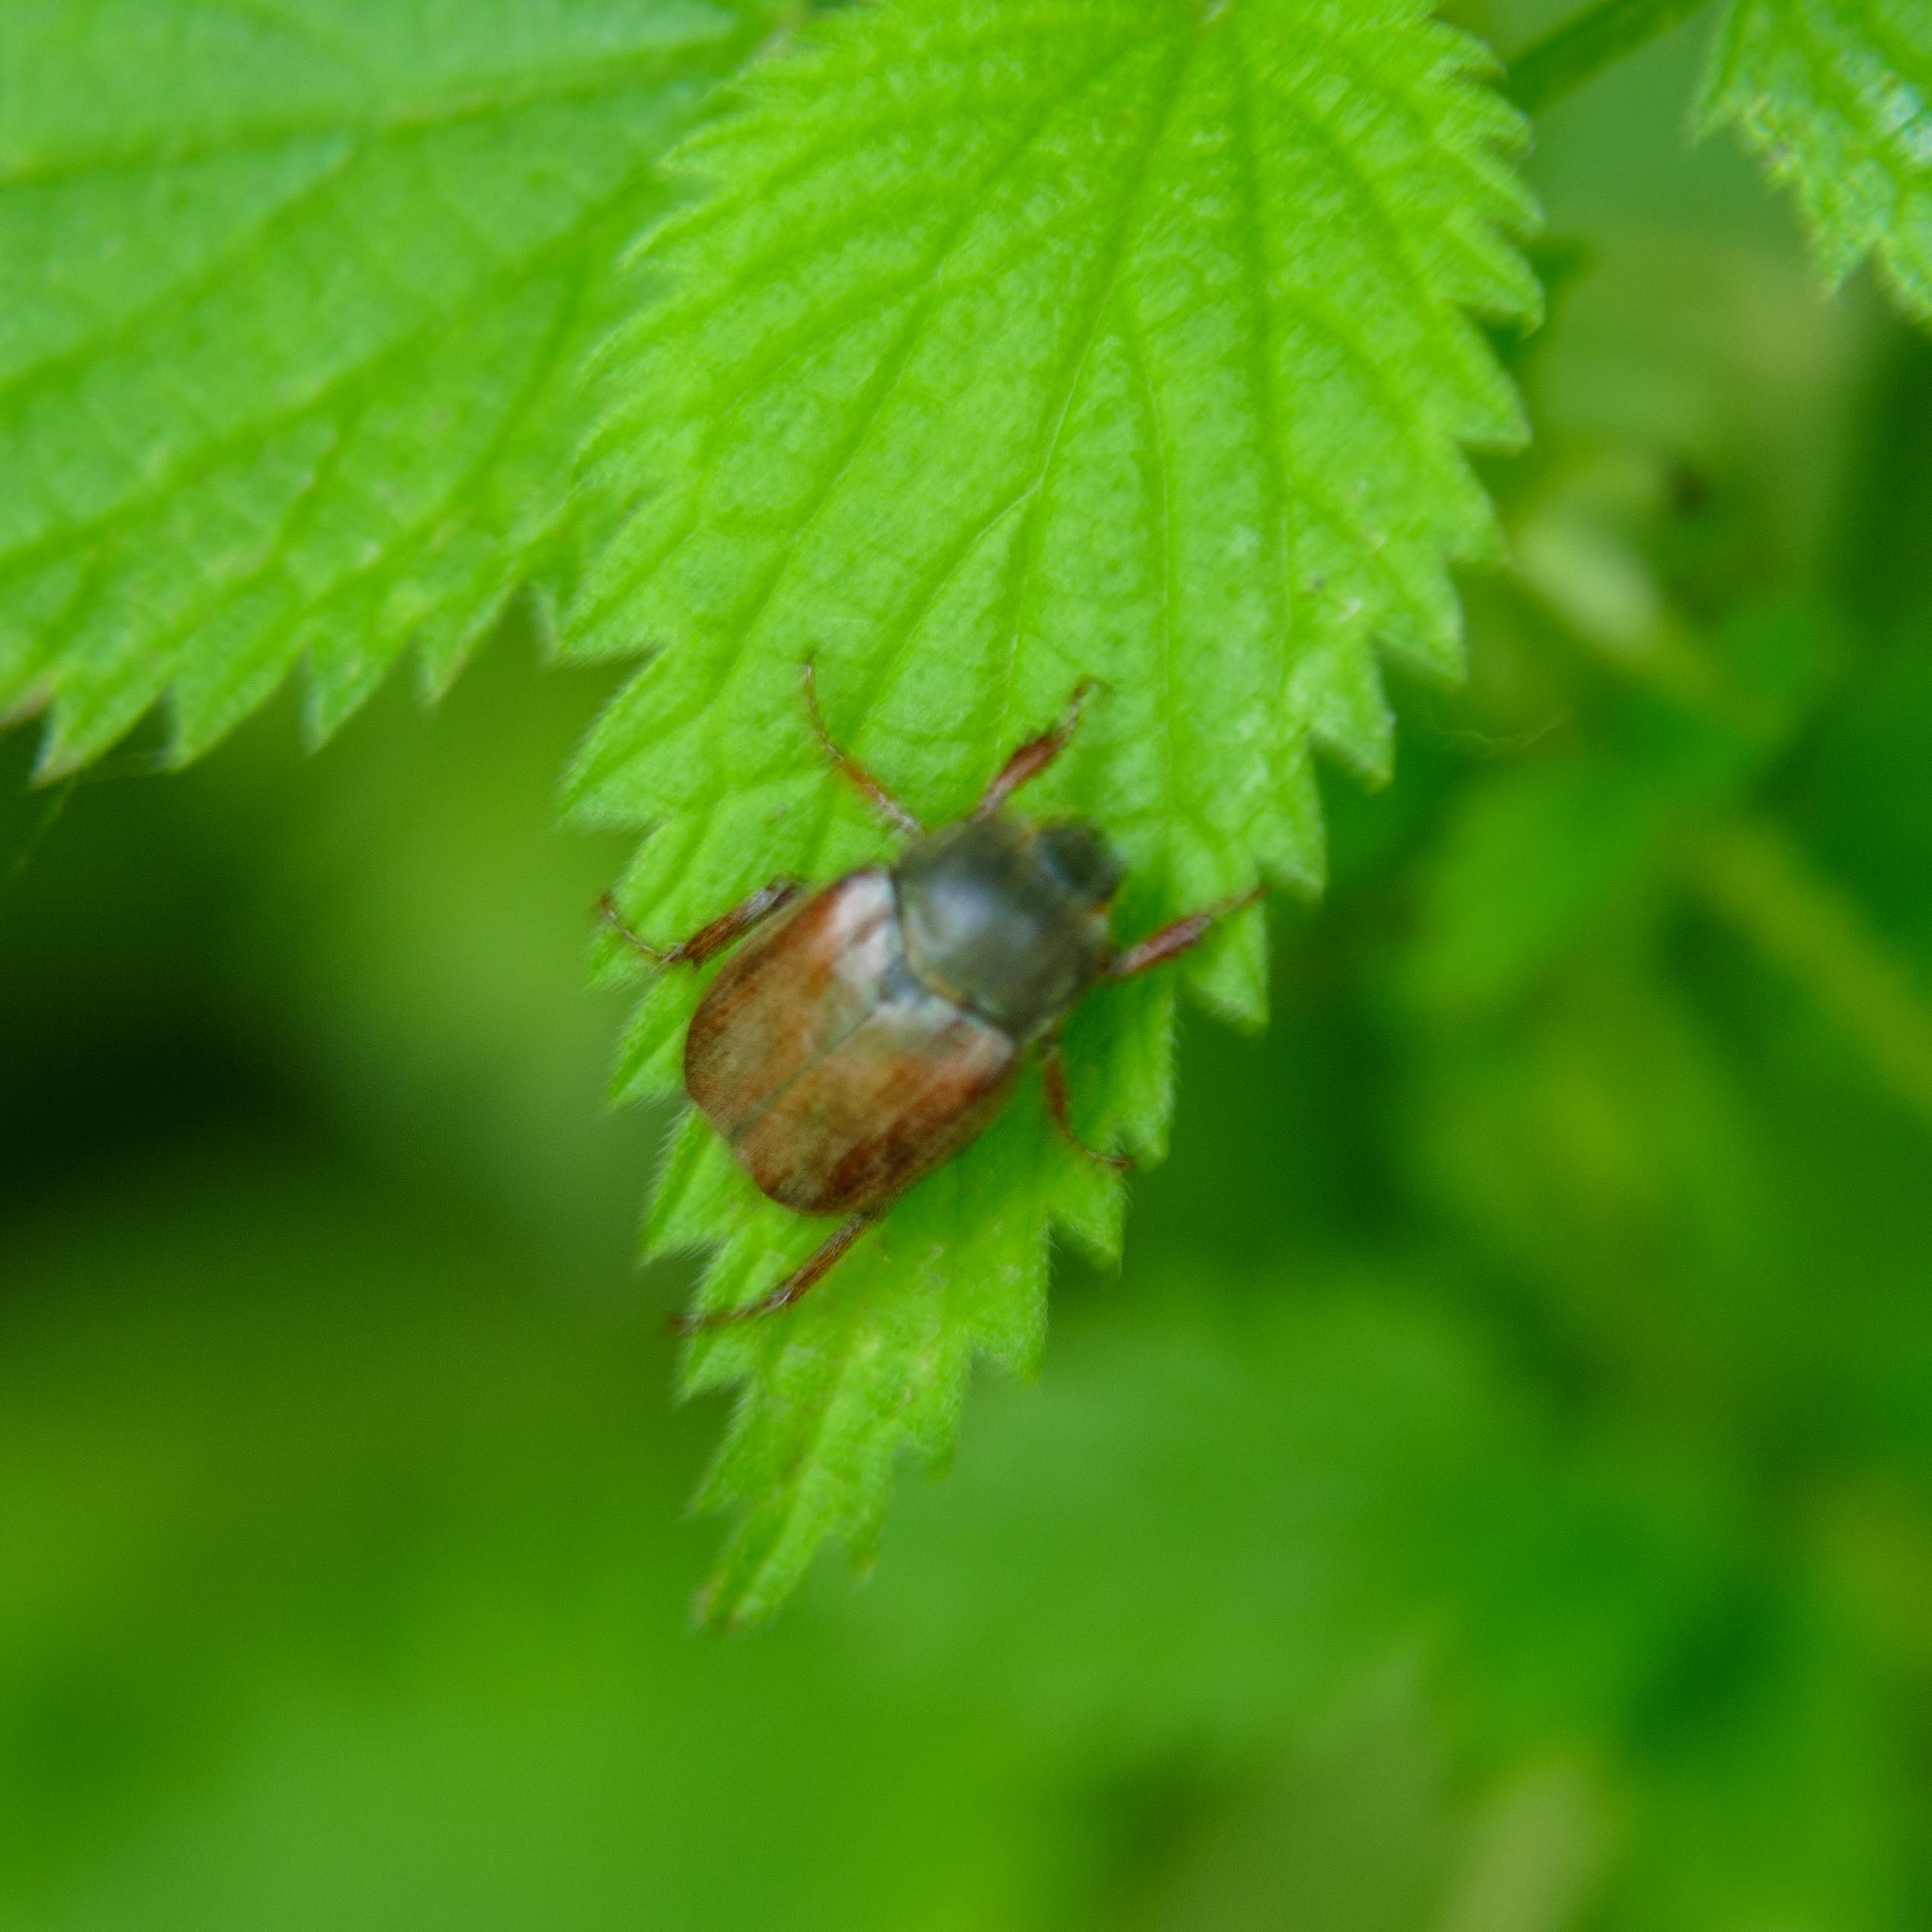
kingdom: Animalia
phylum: Arthropoda
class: Insecta
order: Coleoptera
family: Scarabaeidae
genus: Hoplia
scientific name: Hoplia philanthus
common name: Welsh chafer
